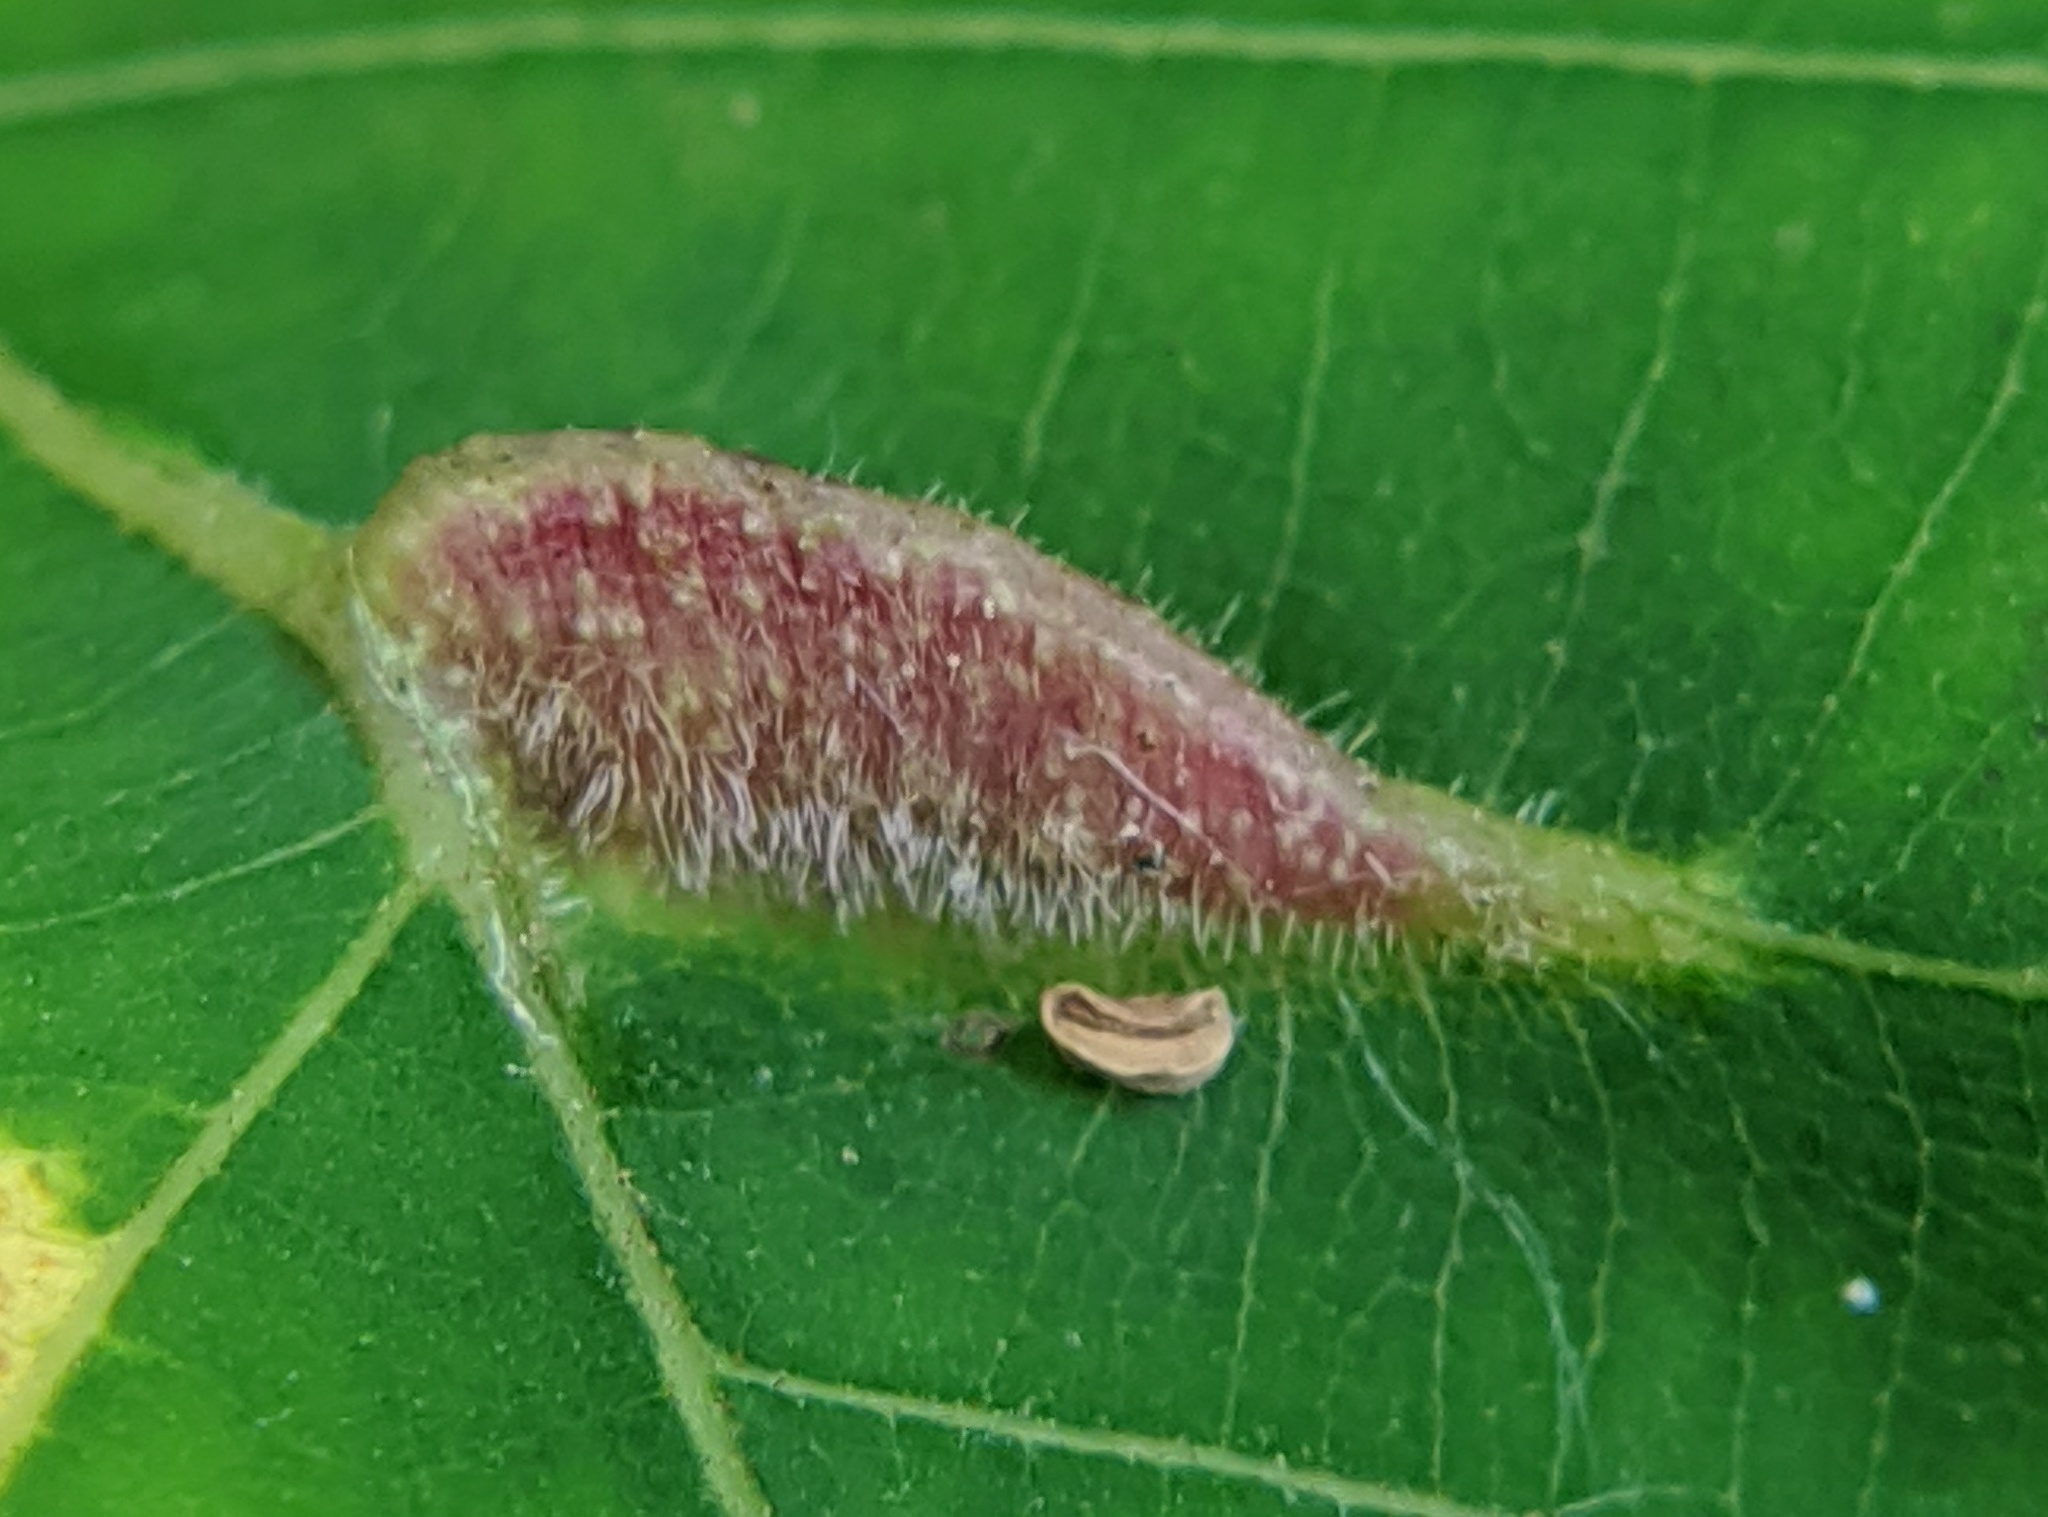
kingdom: Animalia
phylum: Arthropoda
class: Insecta
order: Hemiptera
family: Phylloxeridae
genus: Phylloxera
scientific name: Phylloxera caryaevenae
